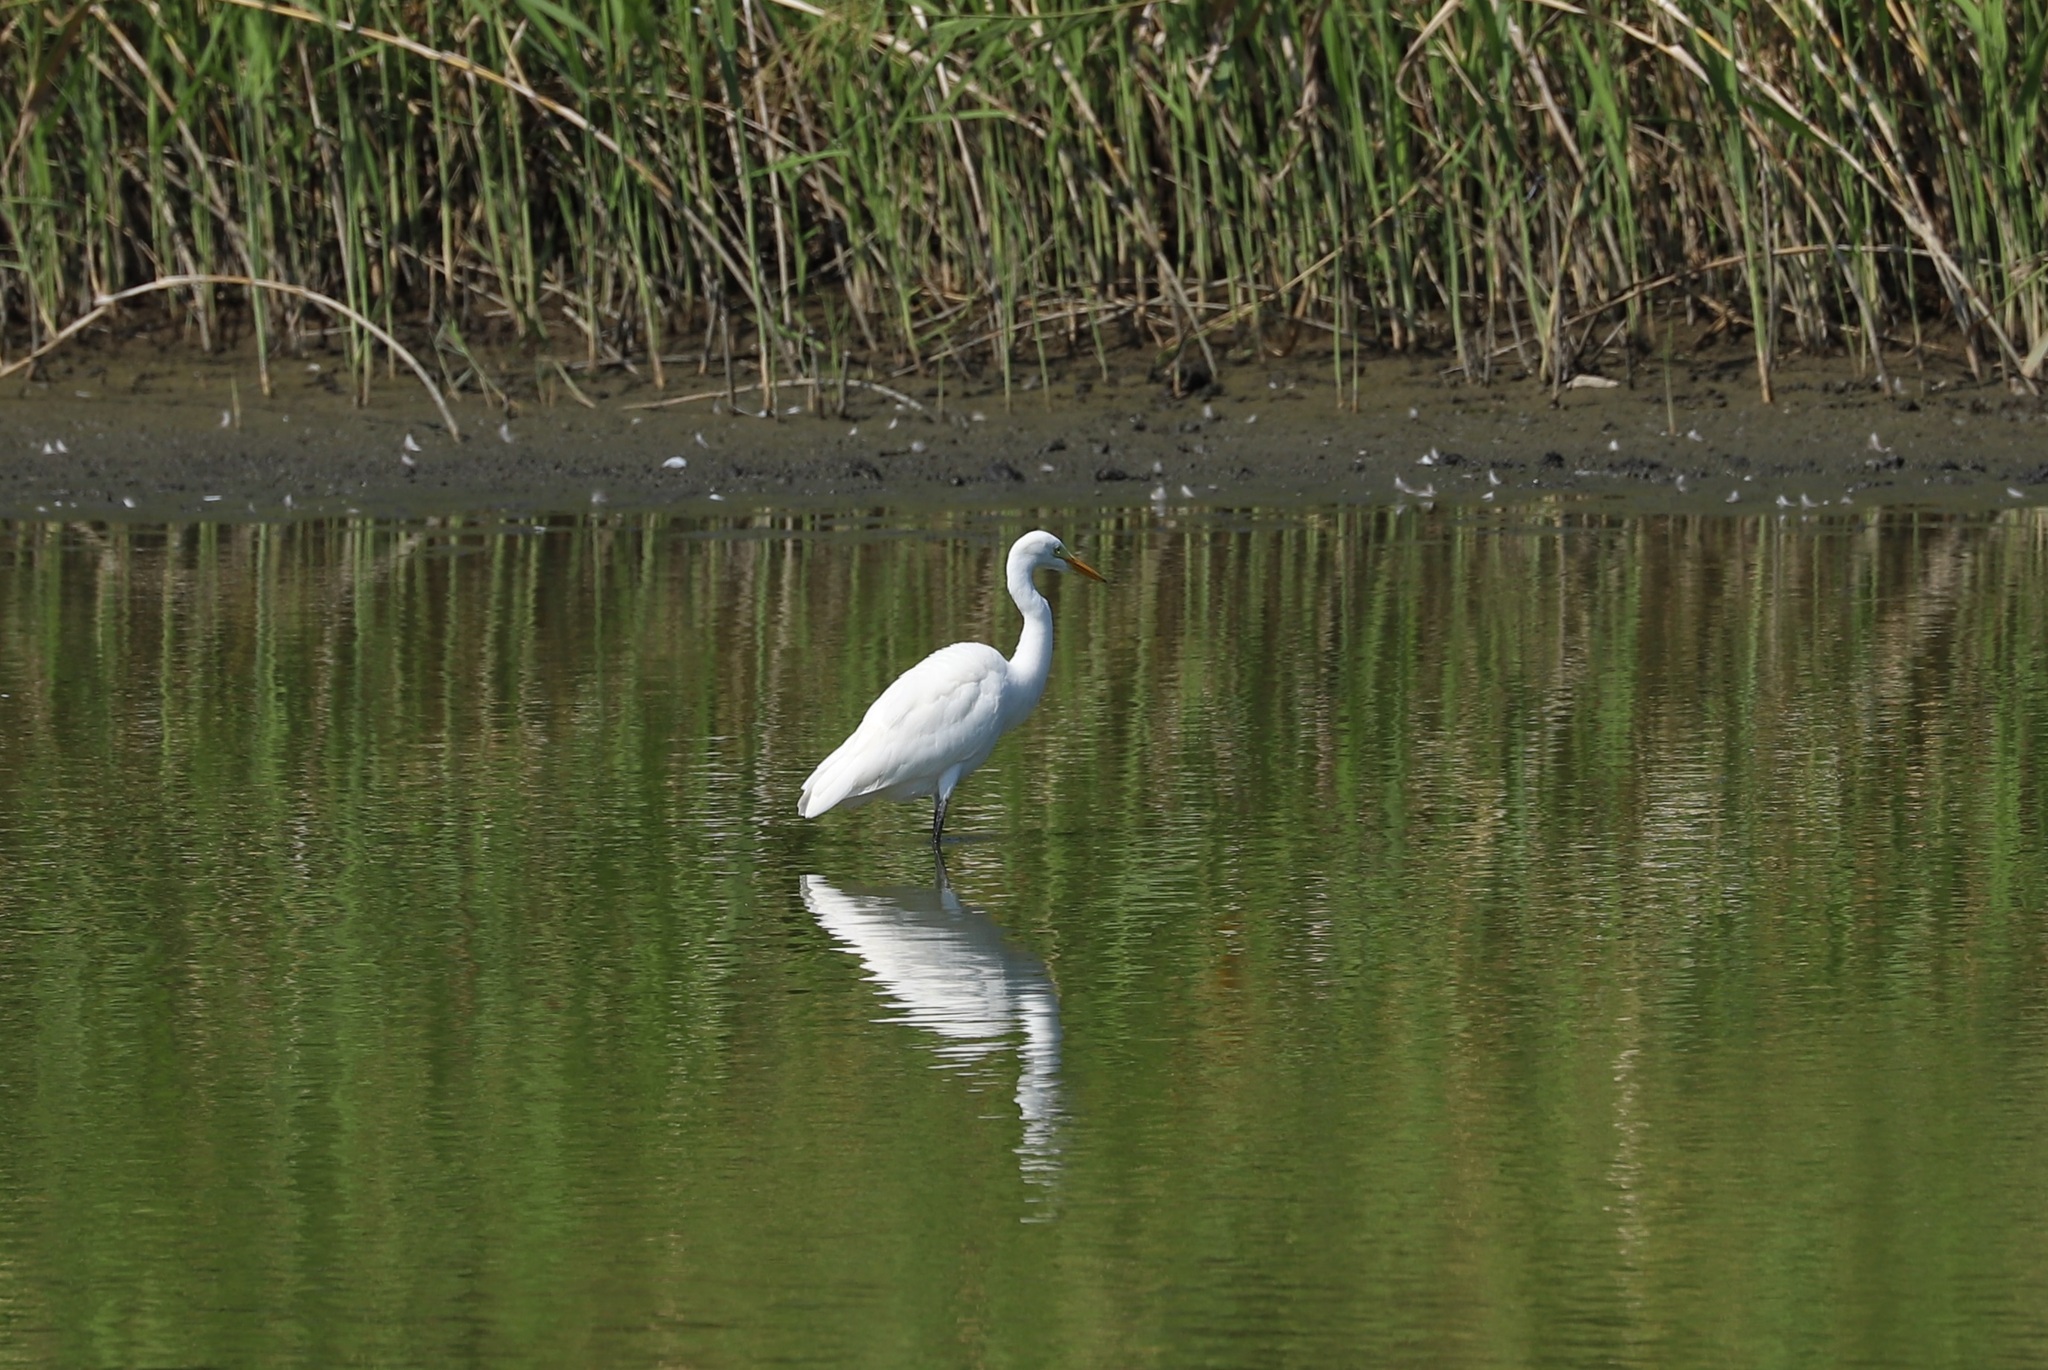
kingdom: Animalia
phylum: Chordata
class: Aves
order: Pelecaniformes
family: Ardeidae
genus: Egretta
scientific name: Egretta intermedia
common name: Intermediate egret
